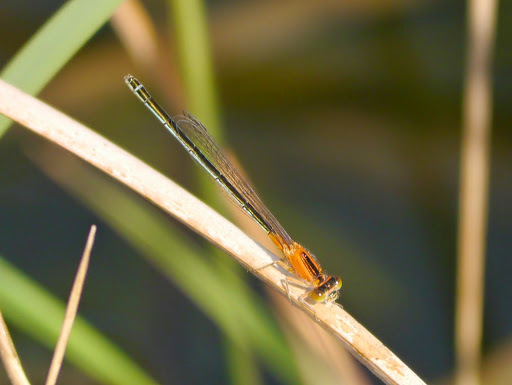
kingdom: Animalia
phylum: Arthropoda
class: Insecta
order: Odonata
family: Coenagrionidae
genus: Ischnura
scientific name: Ischnura senegalensis
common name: Tropical bluetail
